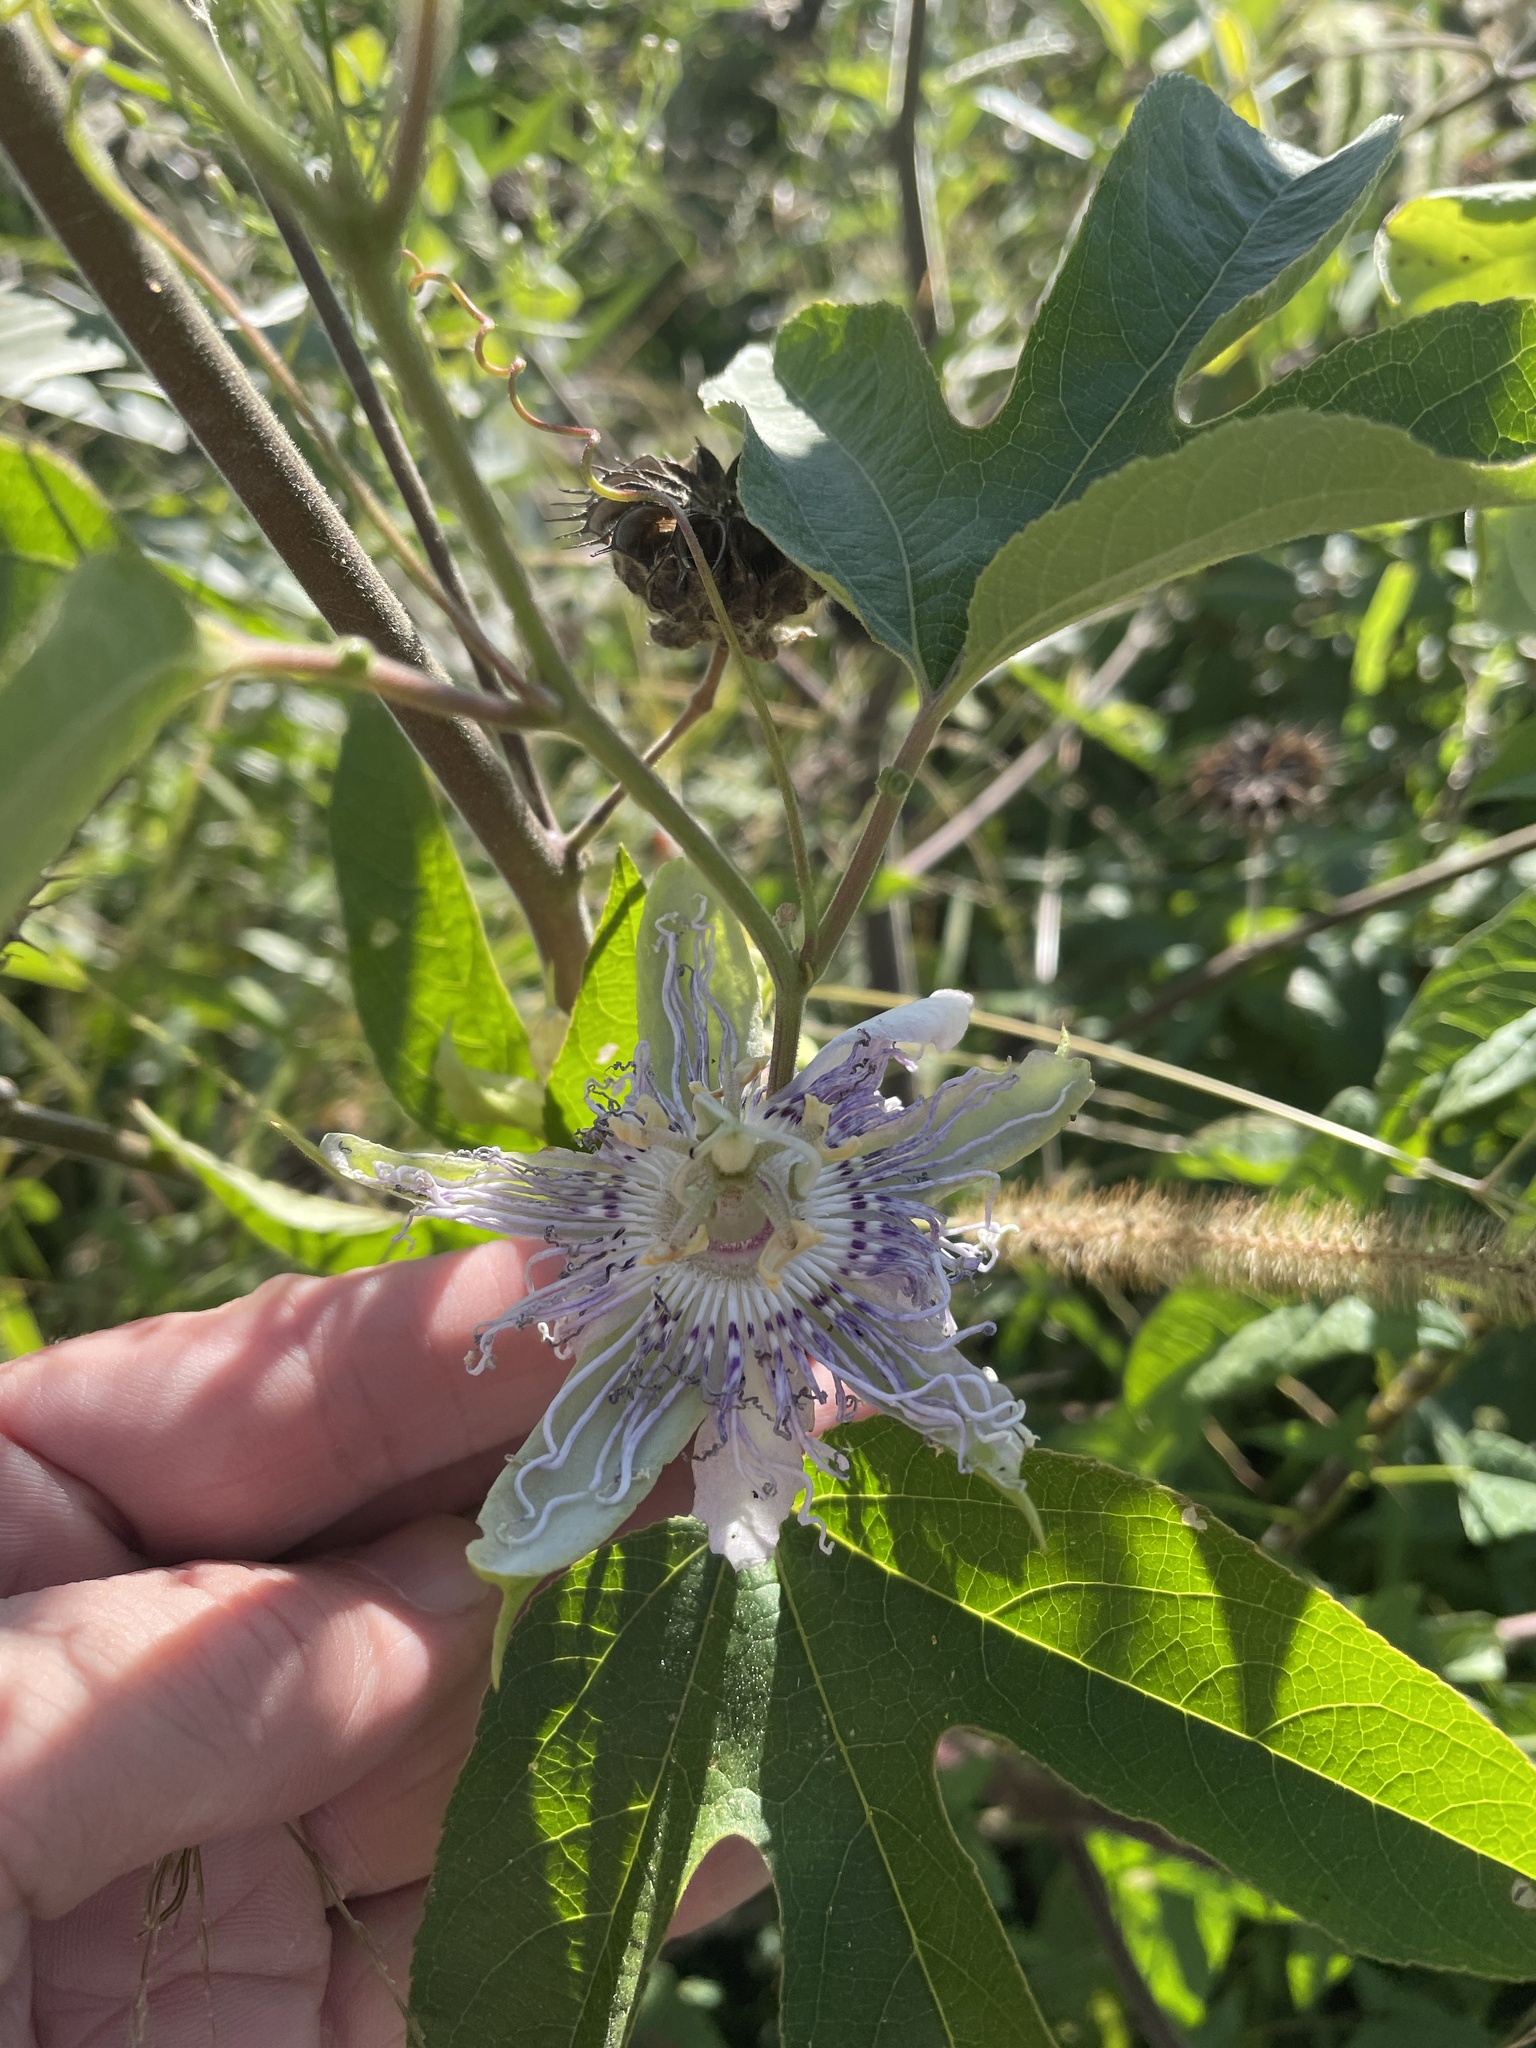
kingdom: Plantae
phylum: Tracheophyta
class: Magnoliopsida
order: Malpighiales
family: Passifloraceae
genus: Passiflora
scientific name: Passiflora incarnata
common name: Apricot-vine
